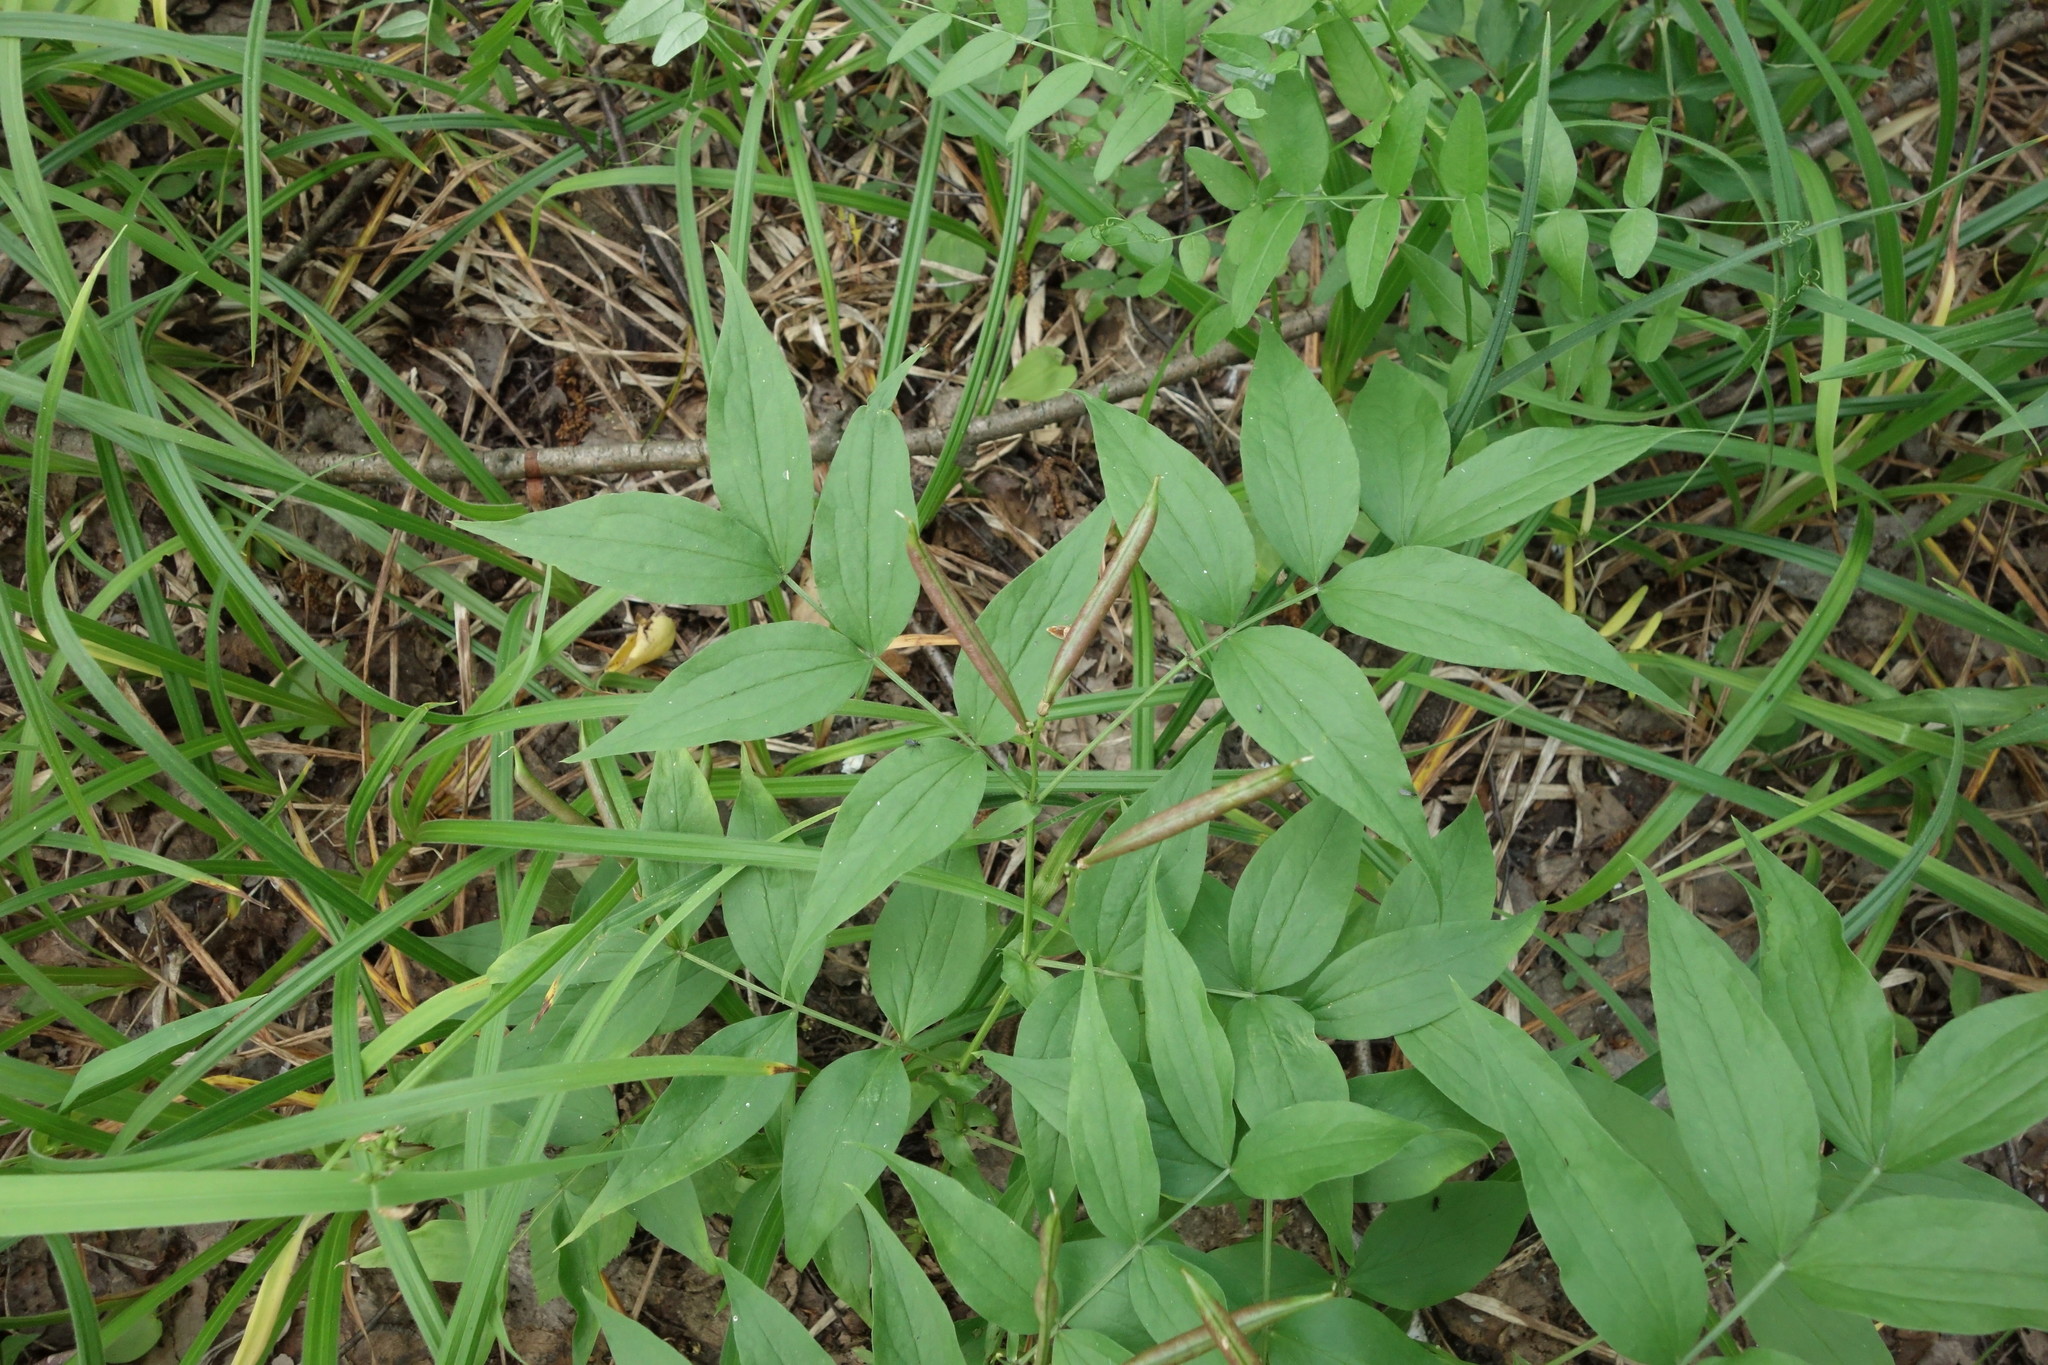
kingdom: Plantae
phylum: Tracheophyta
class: Magnoliopsida
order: Fabales
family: Fabaceae
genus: Lathyrus
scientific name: Lathyrus vernus
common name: Spring pea
